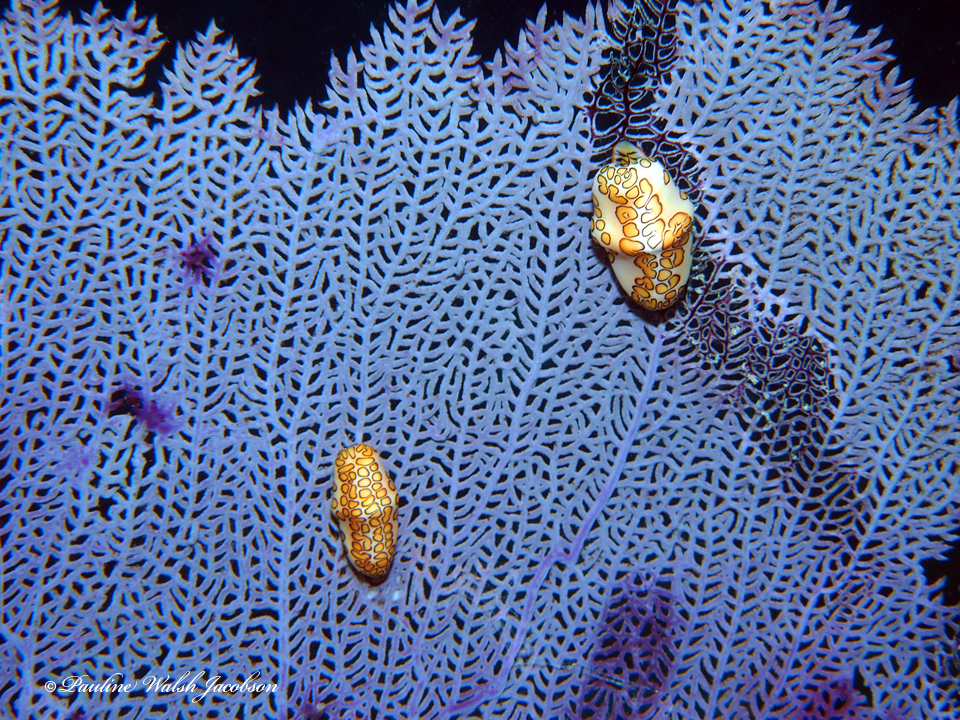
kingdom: Animalia
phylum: Mollusca
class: Gastropoda
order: Littorinimorpha
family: Ovulidae
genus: Cyphoma
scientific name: Cyphoma gibbosum
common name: Flamingo tongue
